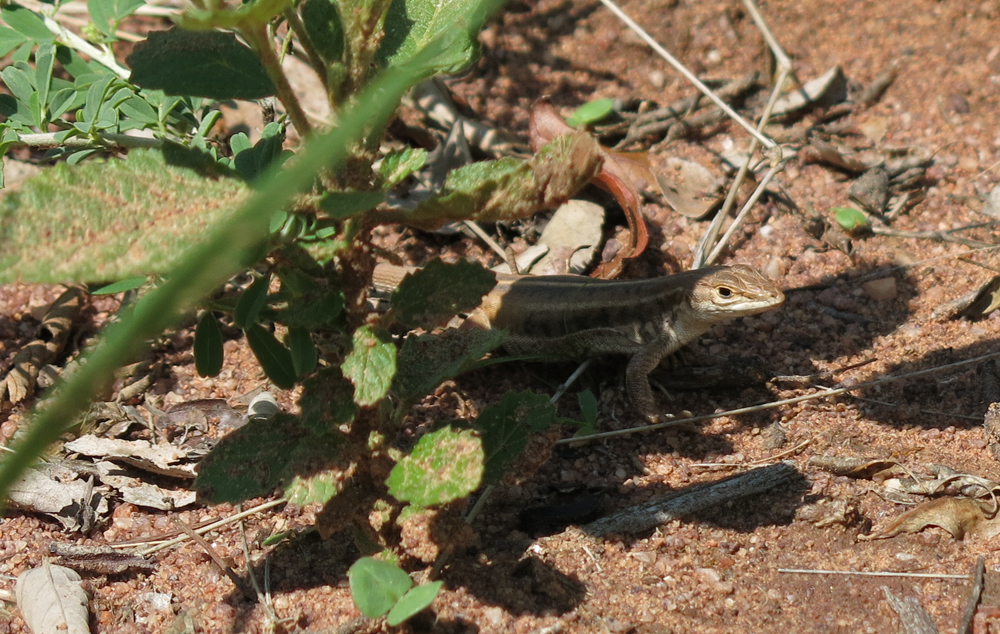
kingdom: Animalia
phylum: Chordata
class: Squamata
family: Lacertidae
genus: Heliobolus
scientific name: Heliobolus lugubris
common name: Bushveld lizard
